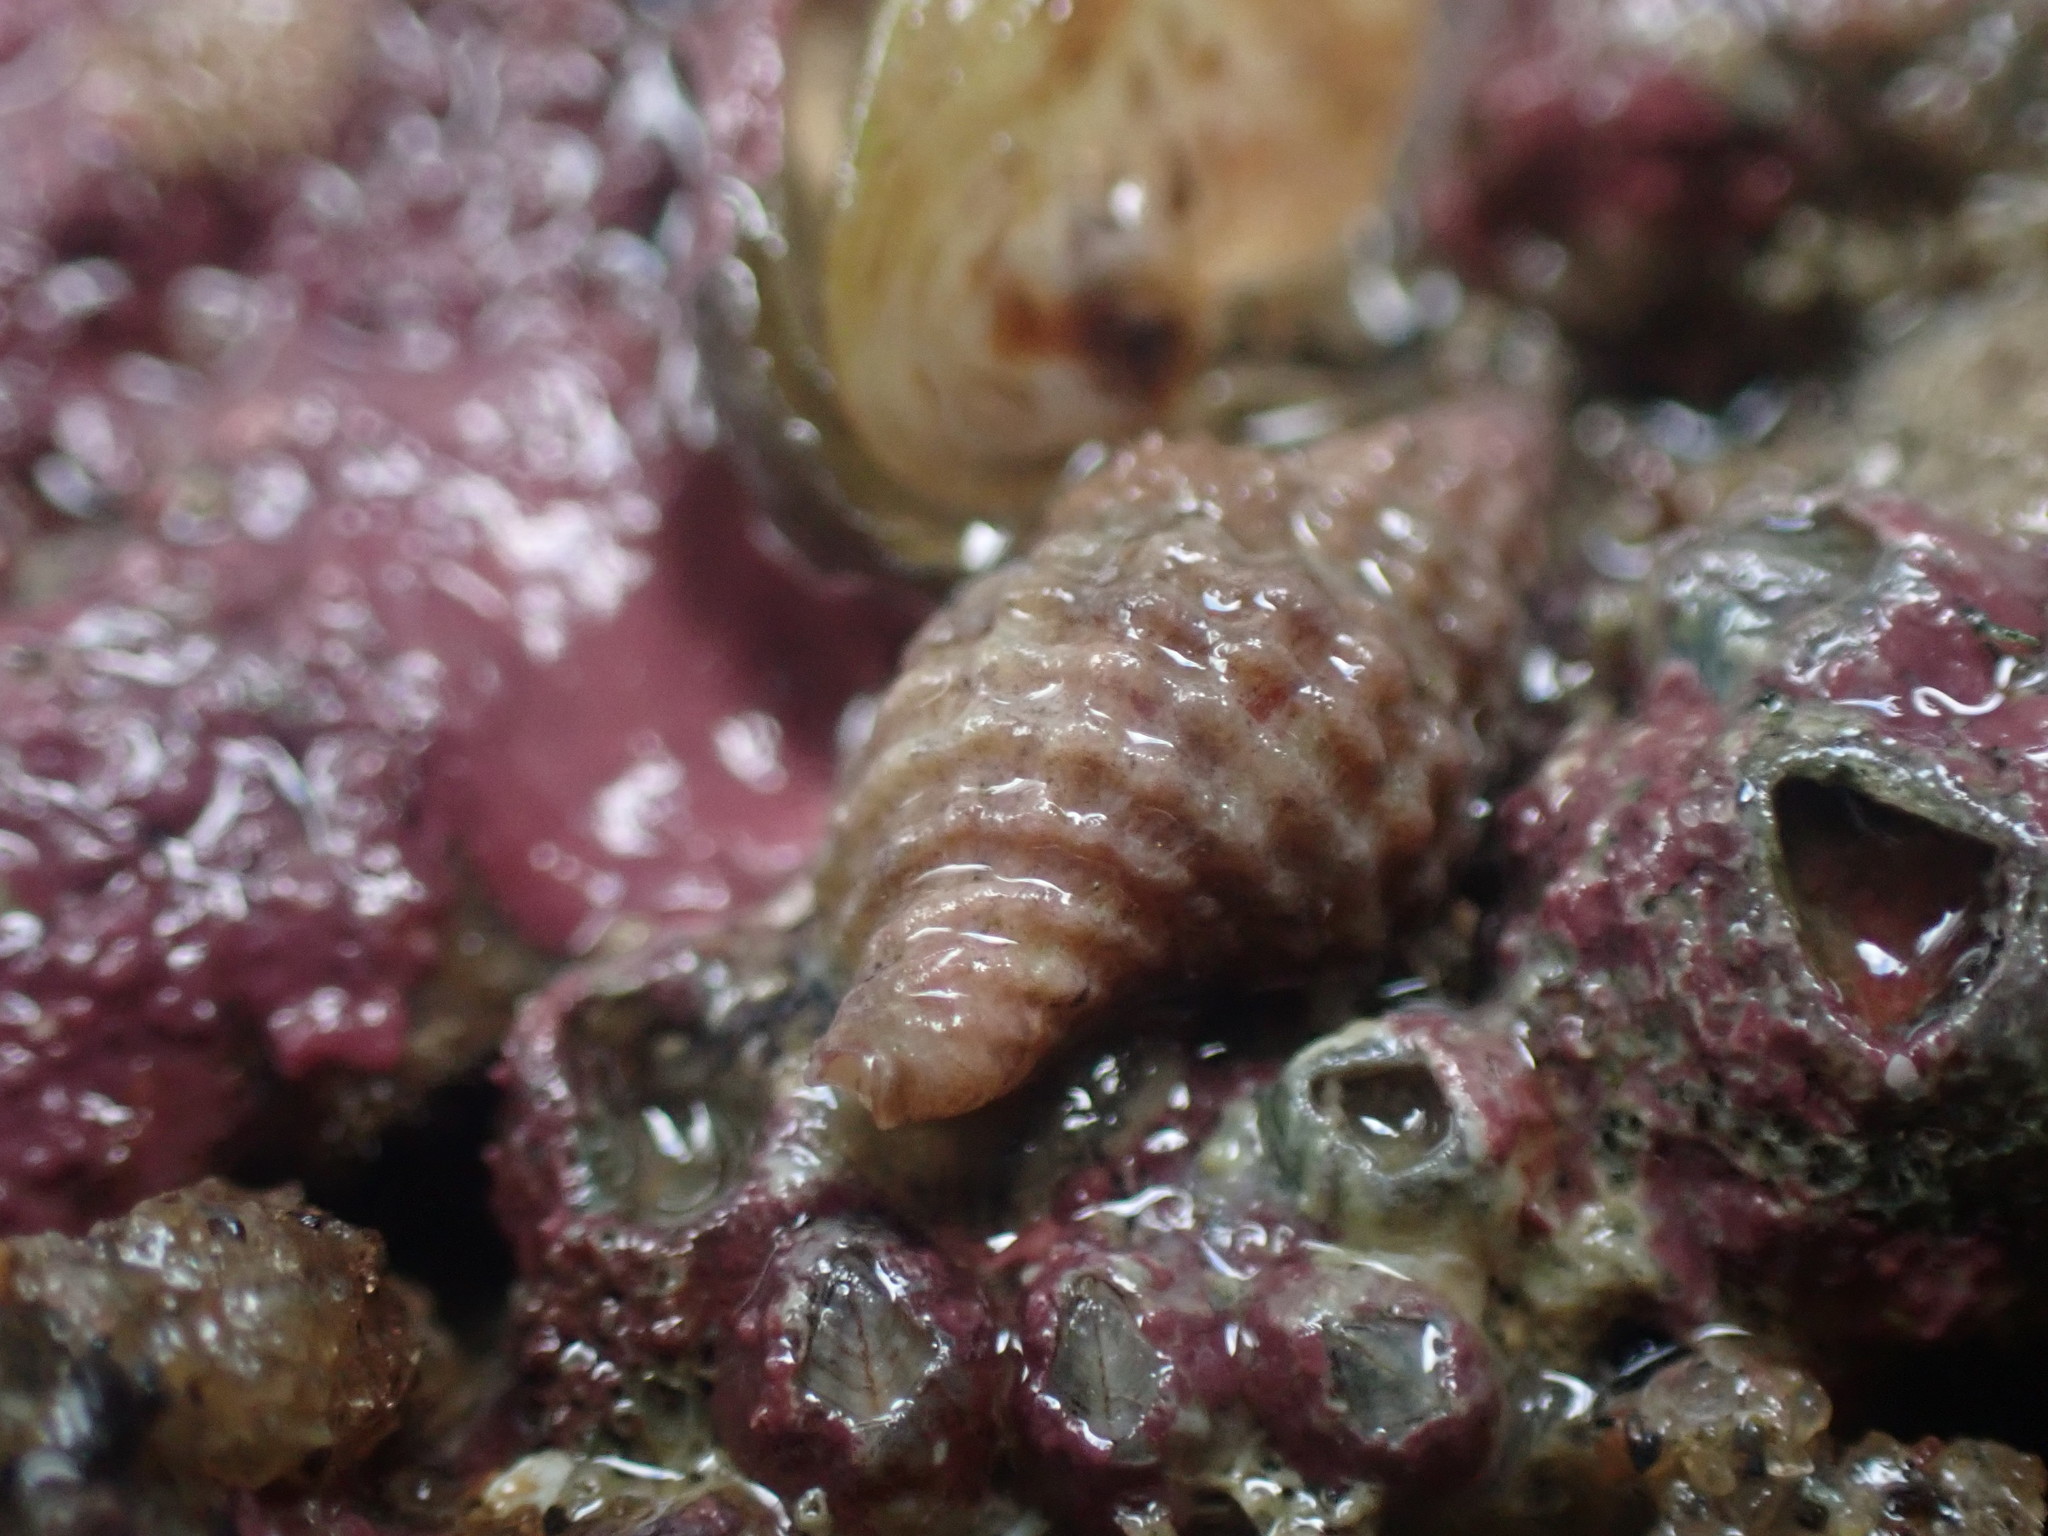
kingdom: Animalia
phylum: Mollusca
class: Gastropoda
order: Neogastropoda
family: Muricidae
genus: Xymenella
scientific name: Xymenella pusilla
